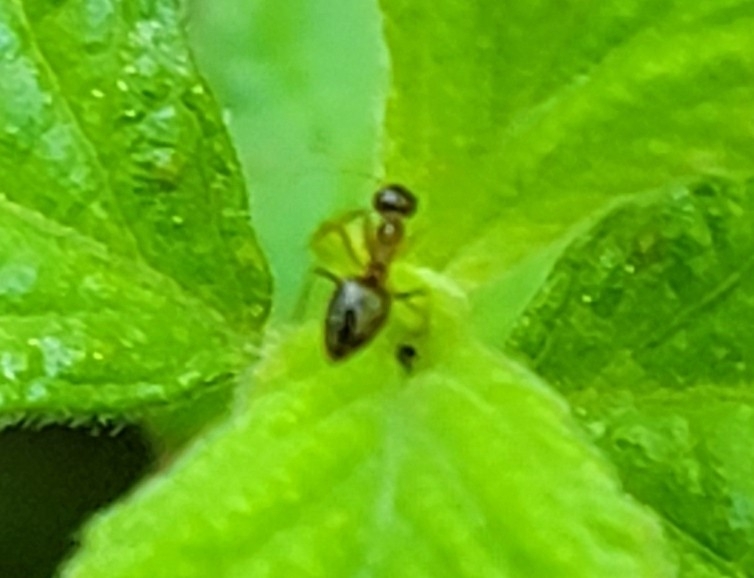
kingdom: Animalia
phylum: Arthropoda
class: Insecta
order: Hymenoptera
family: Formicidae
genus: Prenolepis
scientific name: Prenolepis imparis
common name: Small honey ant
